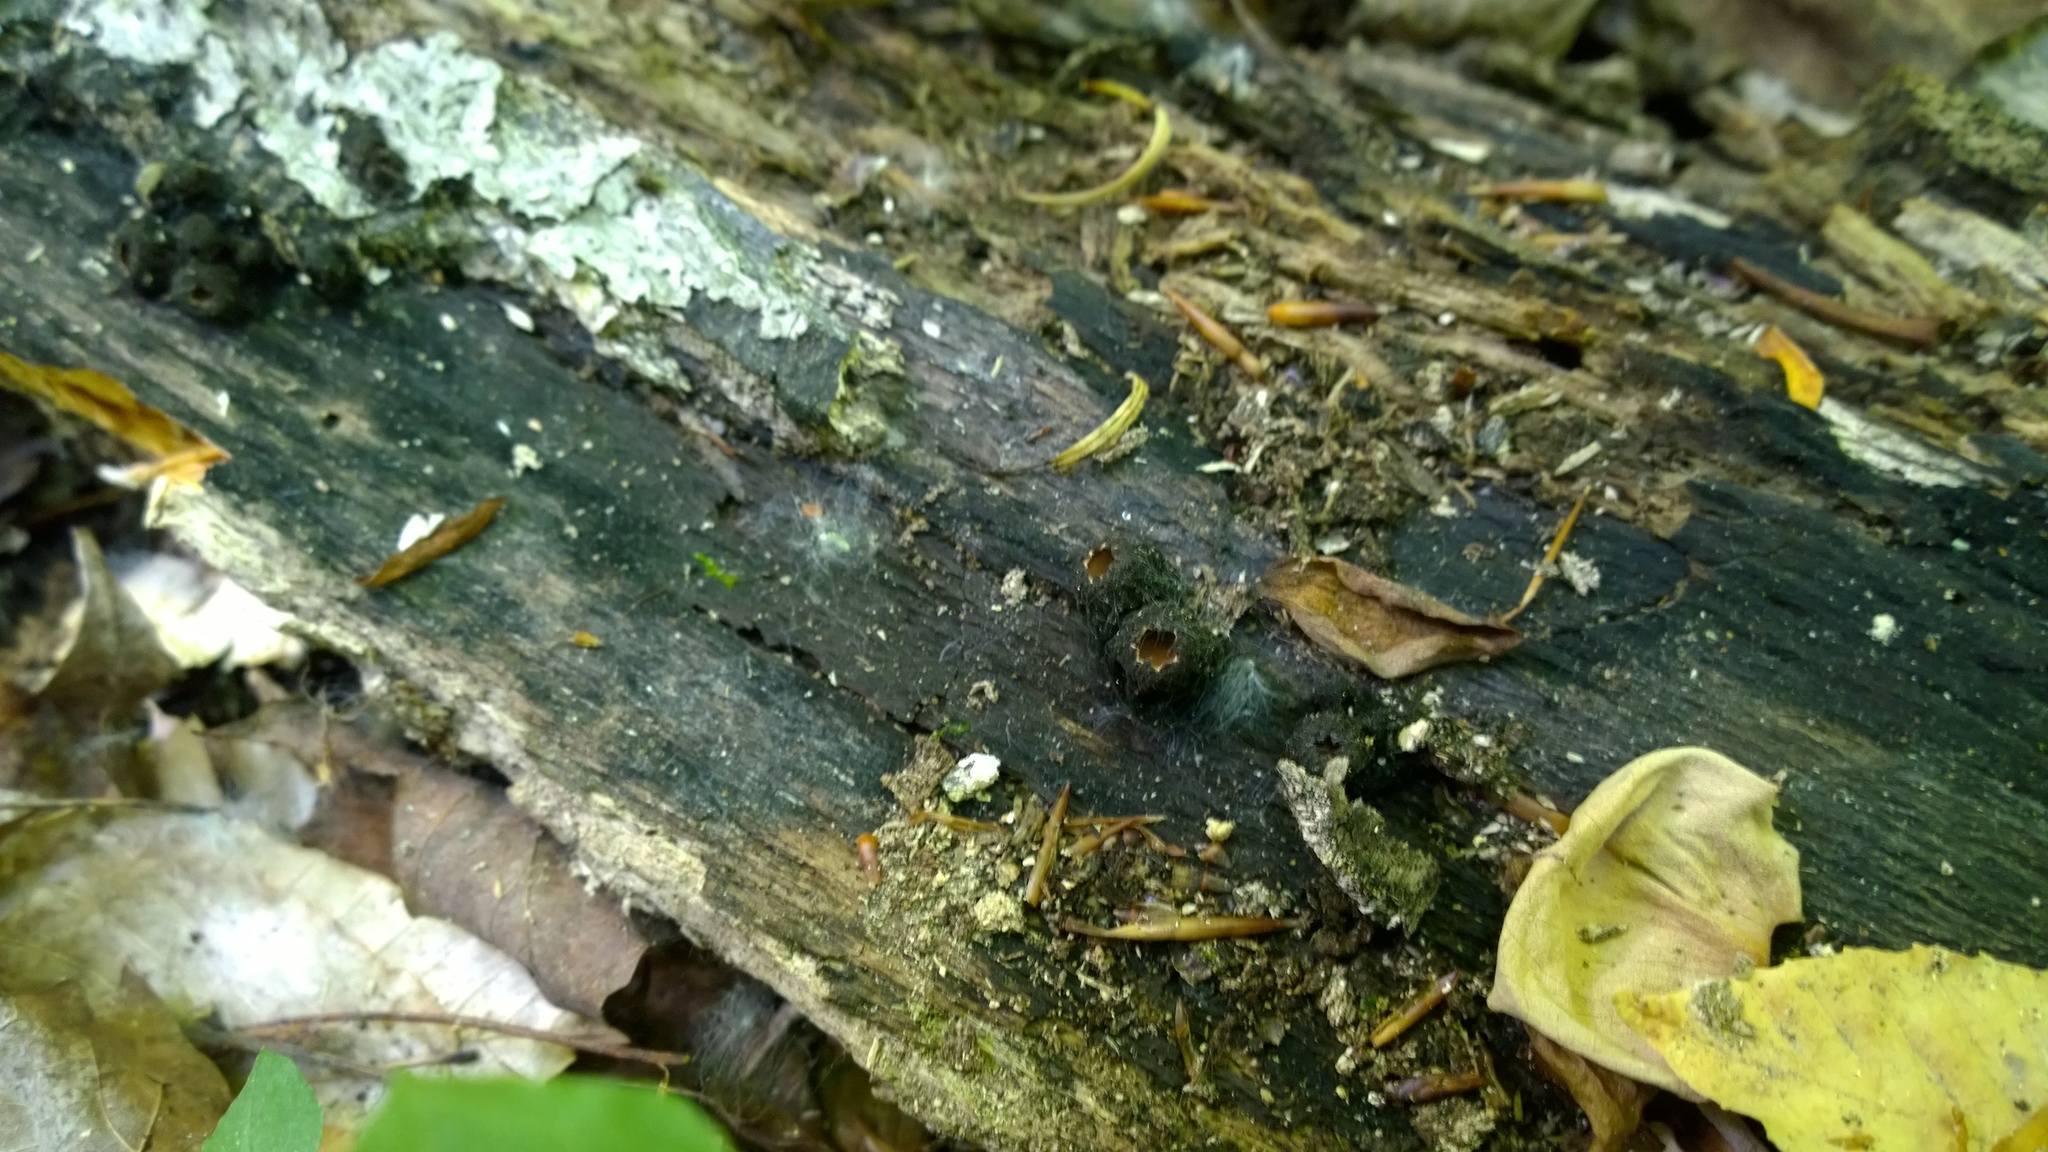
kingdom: Fungi
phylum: Ascomycota
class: Pezizomycetes
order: Pezizales
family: Sarcosomataceae
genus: Galiella
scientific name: Galiella rufa
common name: Hairy rubber cup
